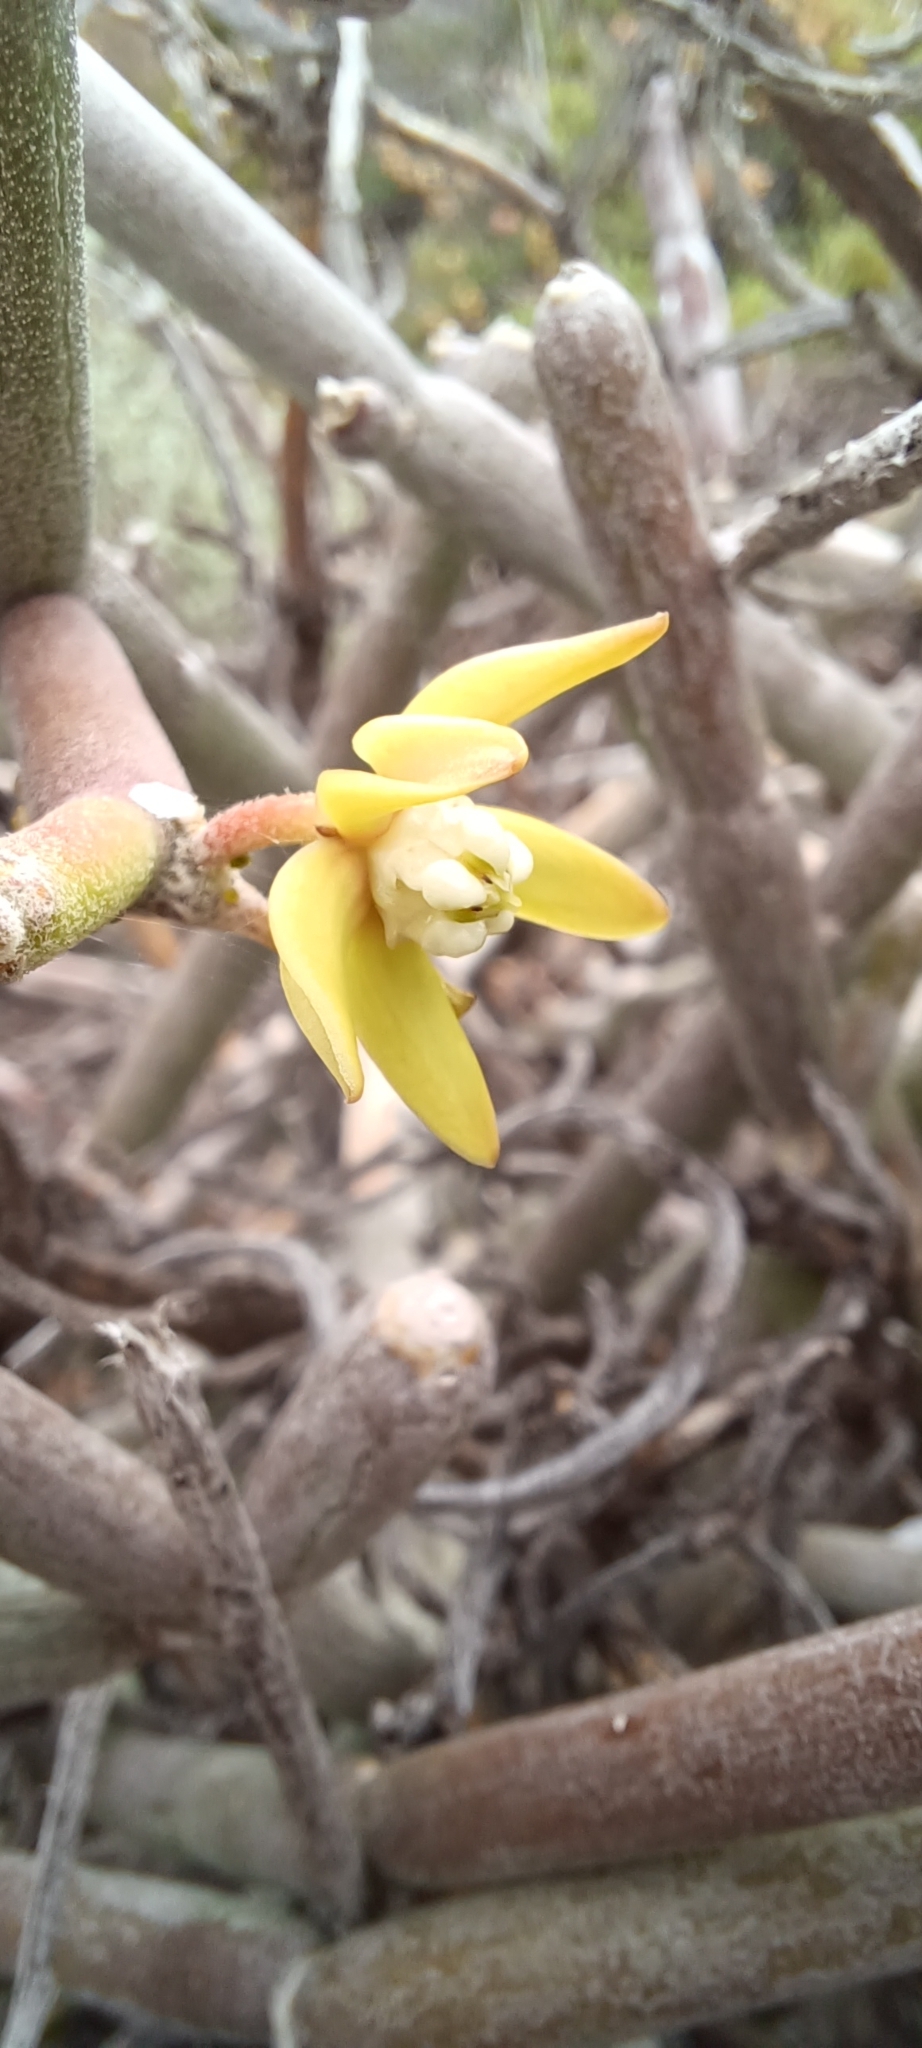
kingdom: Plantae
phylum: Tracheophyta
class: Magnoliopsida
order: Gentianales
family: Apocynaceae
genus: Cynanchum
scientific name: Cynanchum viminale
